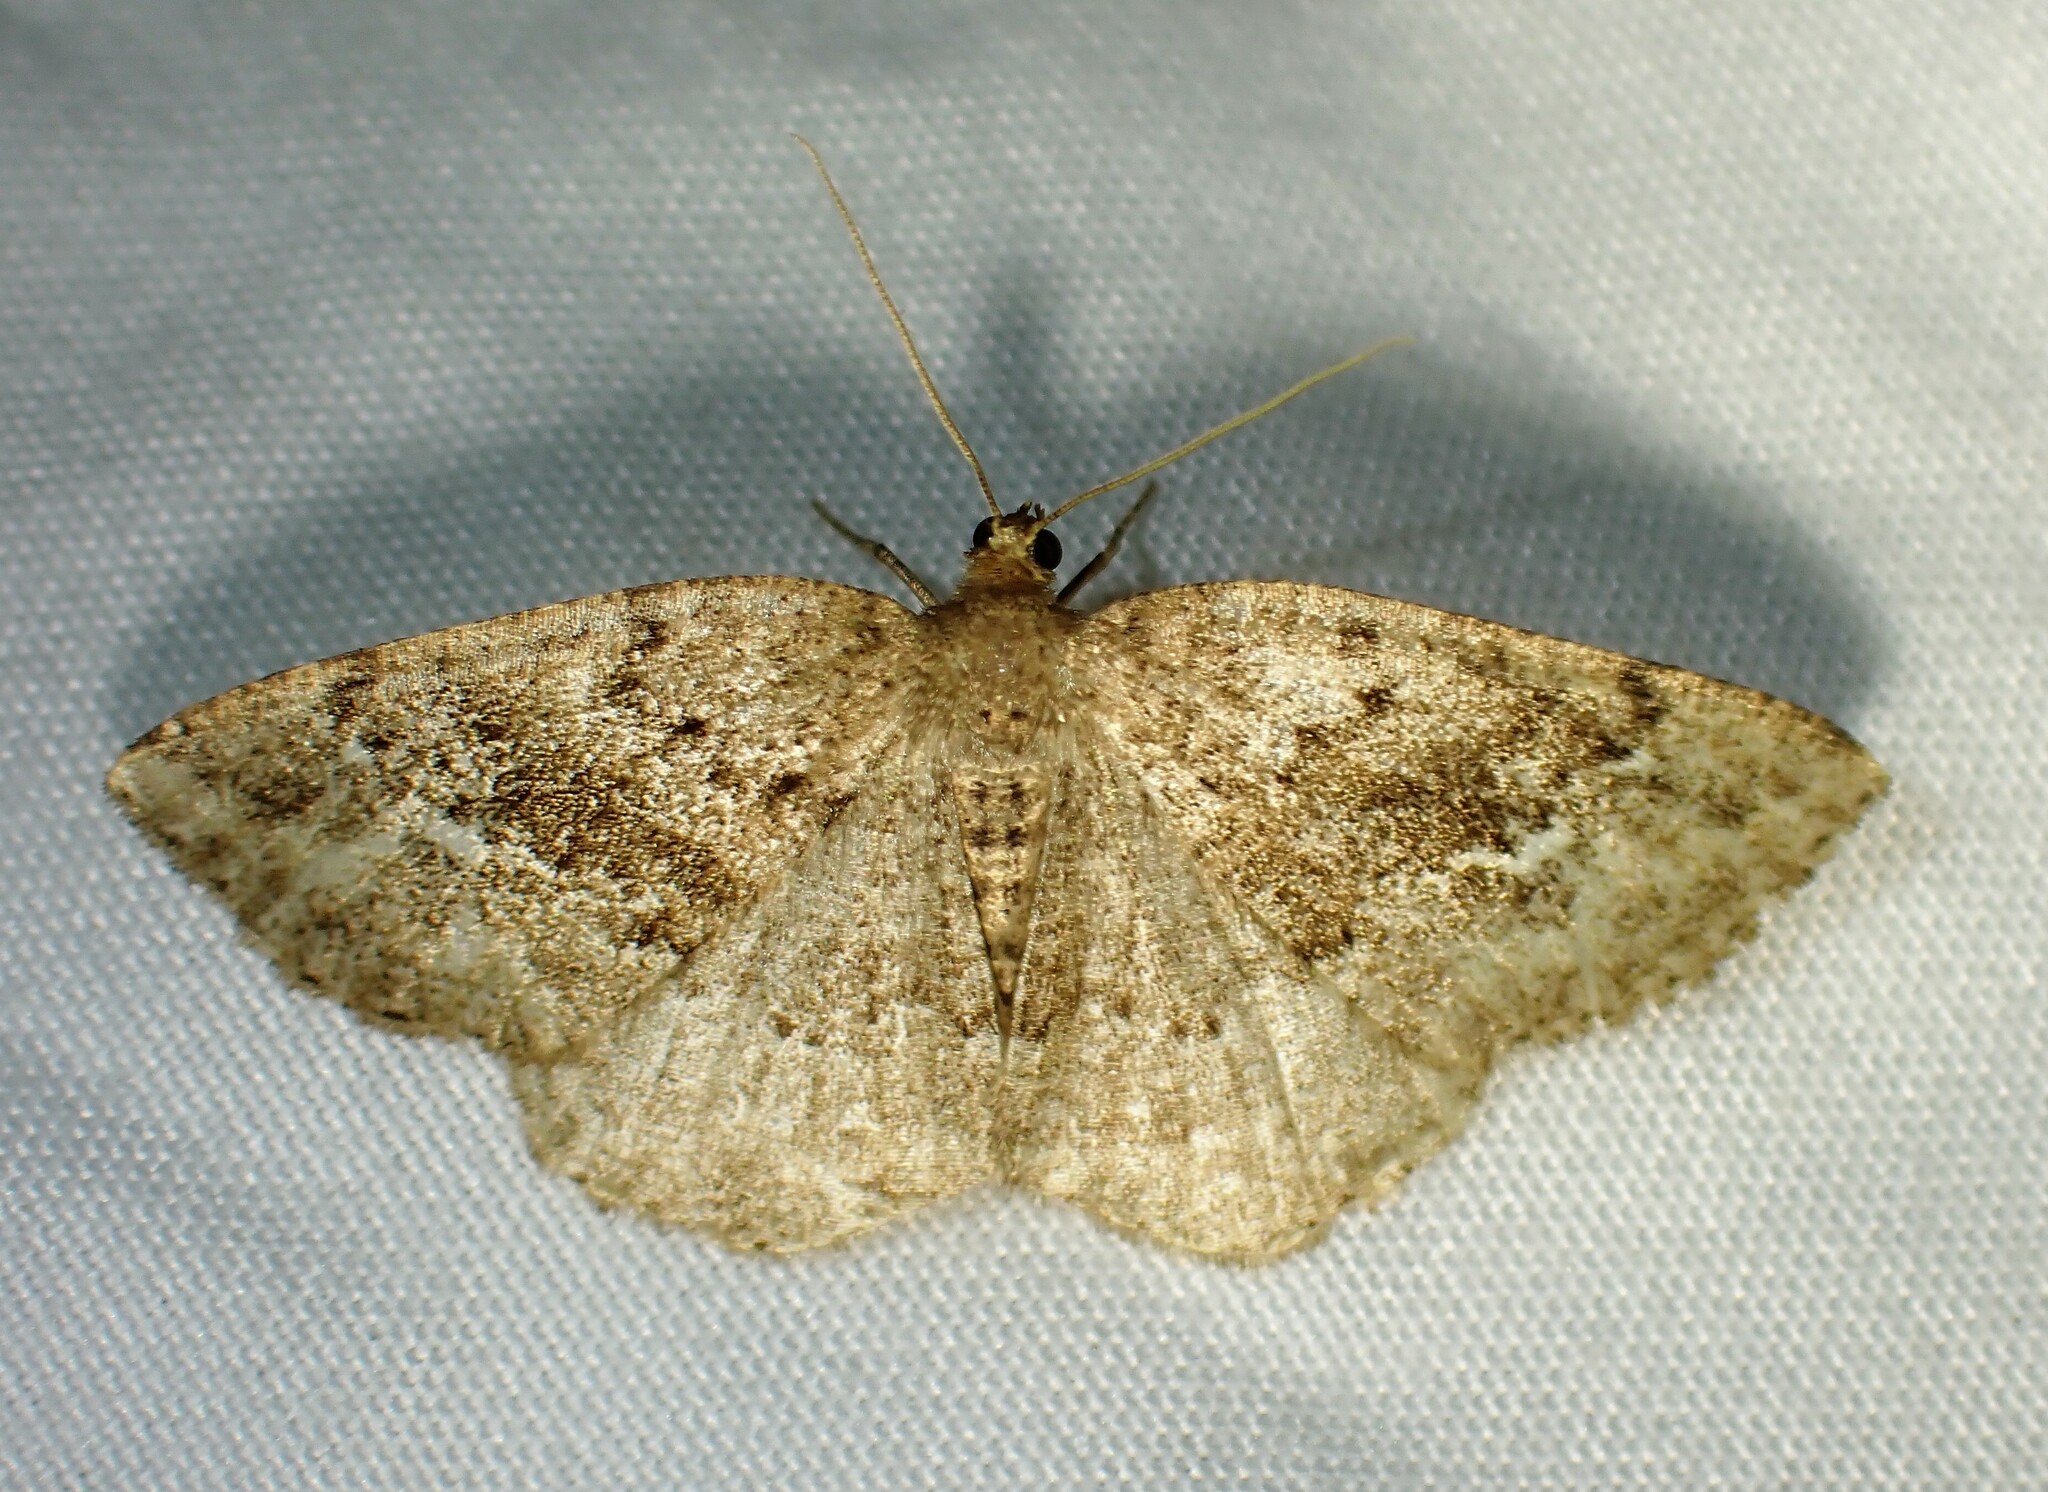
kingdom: Animalia
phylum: Arthropoda
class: Insecta
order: Lepidoptera
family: Geometridae
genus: Homochlodes
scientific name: Homochlodes fritillaria
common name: Pale homochlodes
